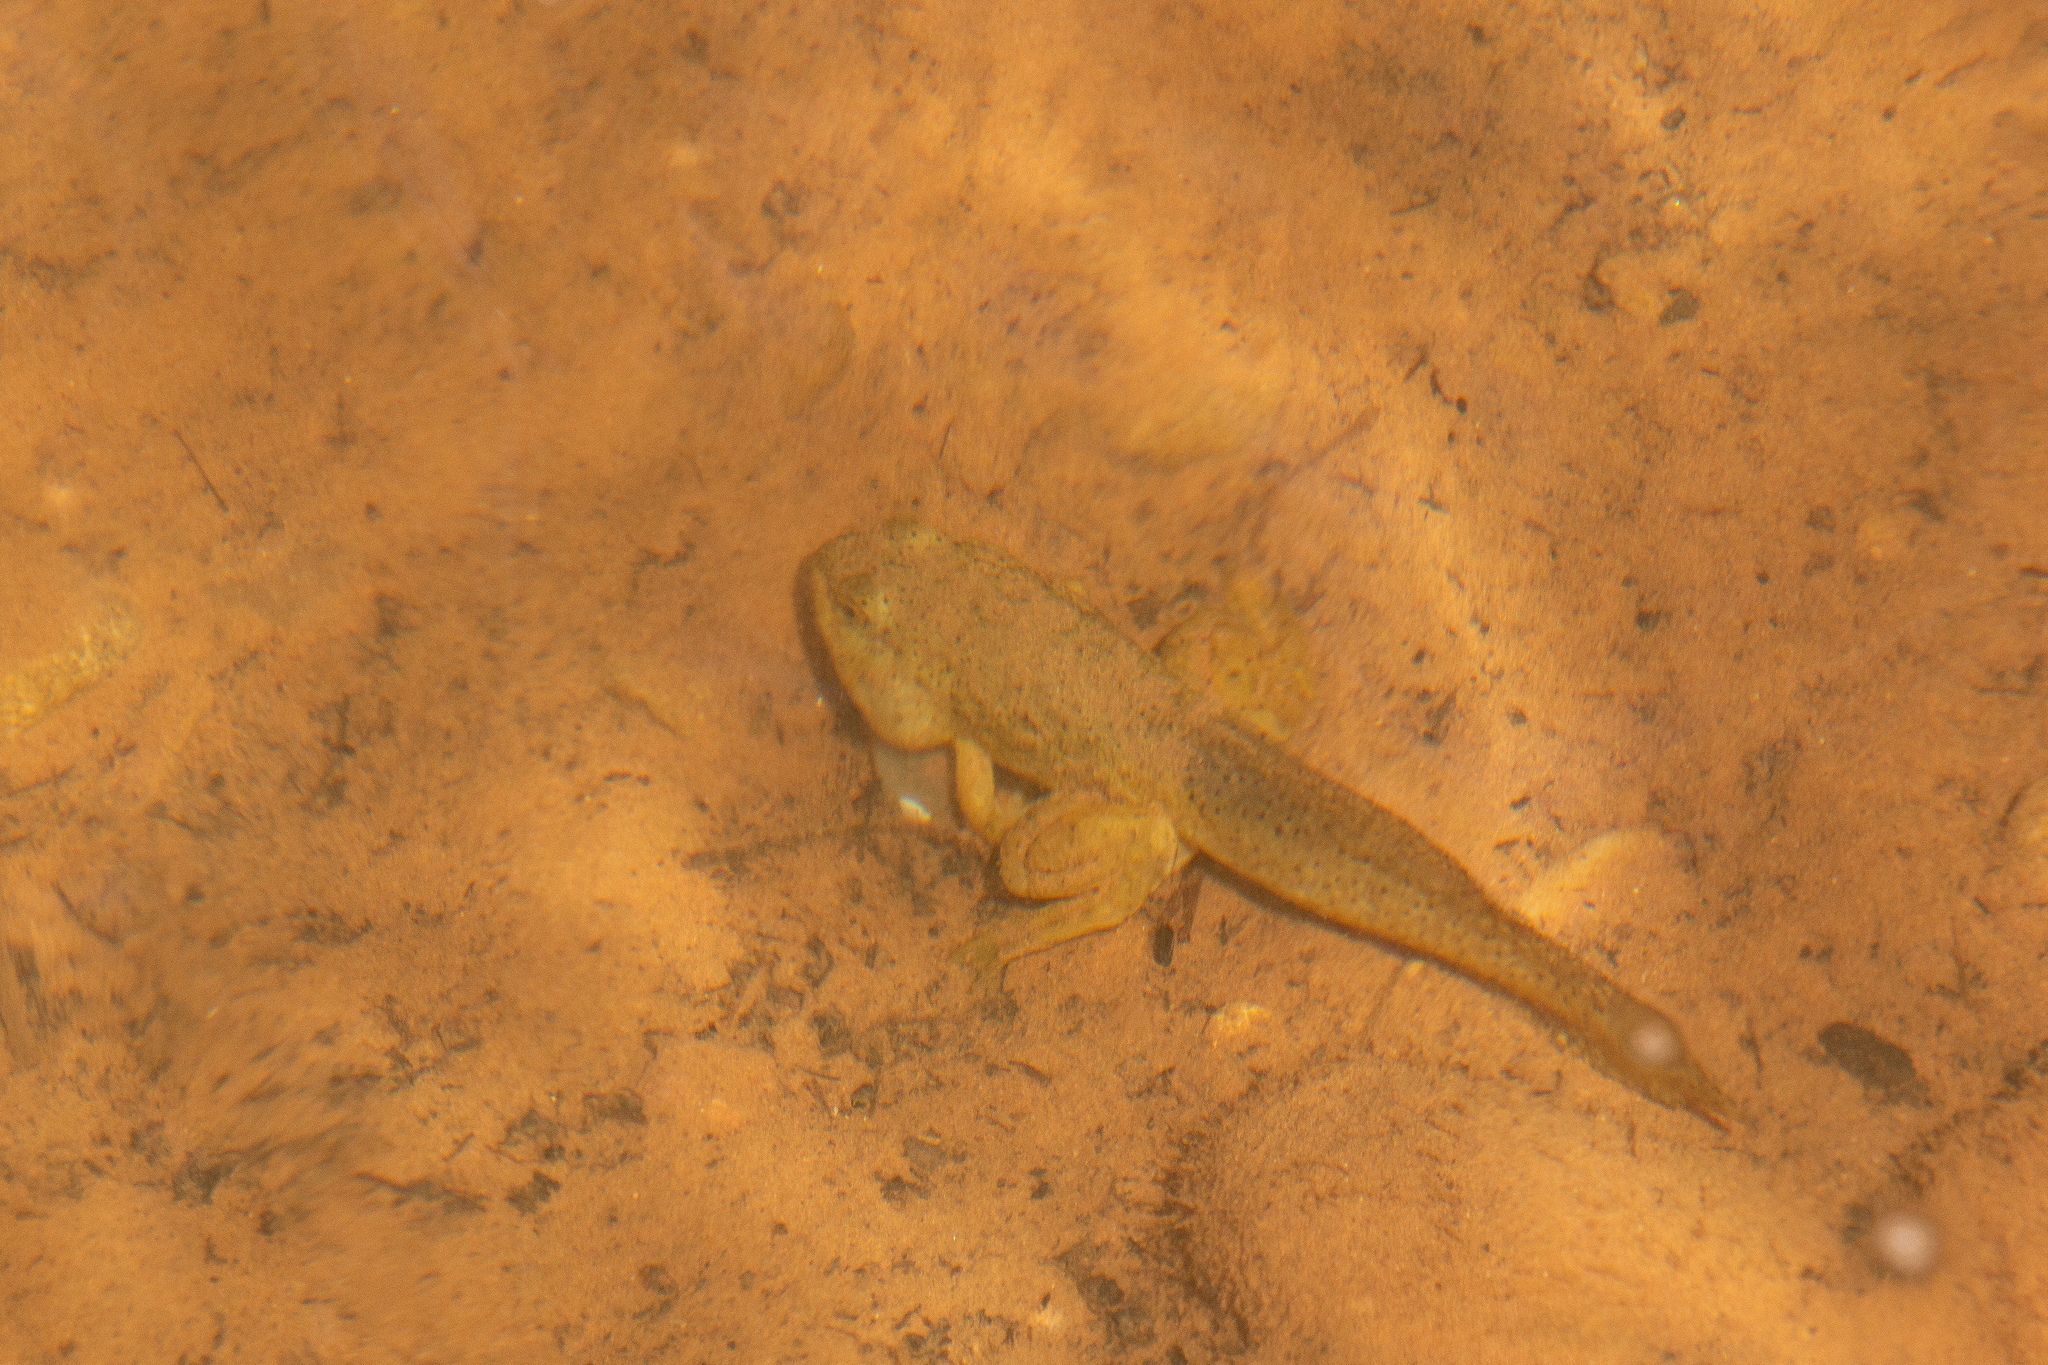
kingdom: Animalia
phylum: Chordata
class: Amphibia
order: Anura
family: Ranidae
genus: Lithobates
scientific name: Lithobates catesbeianus
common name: American bullfrog
